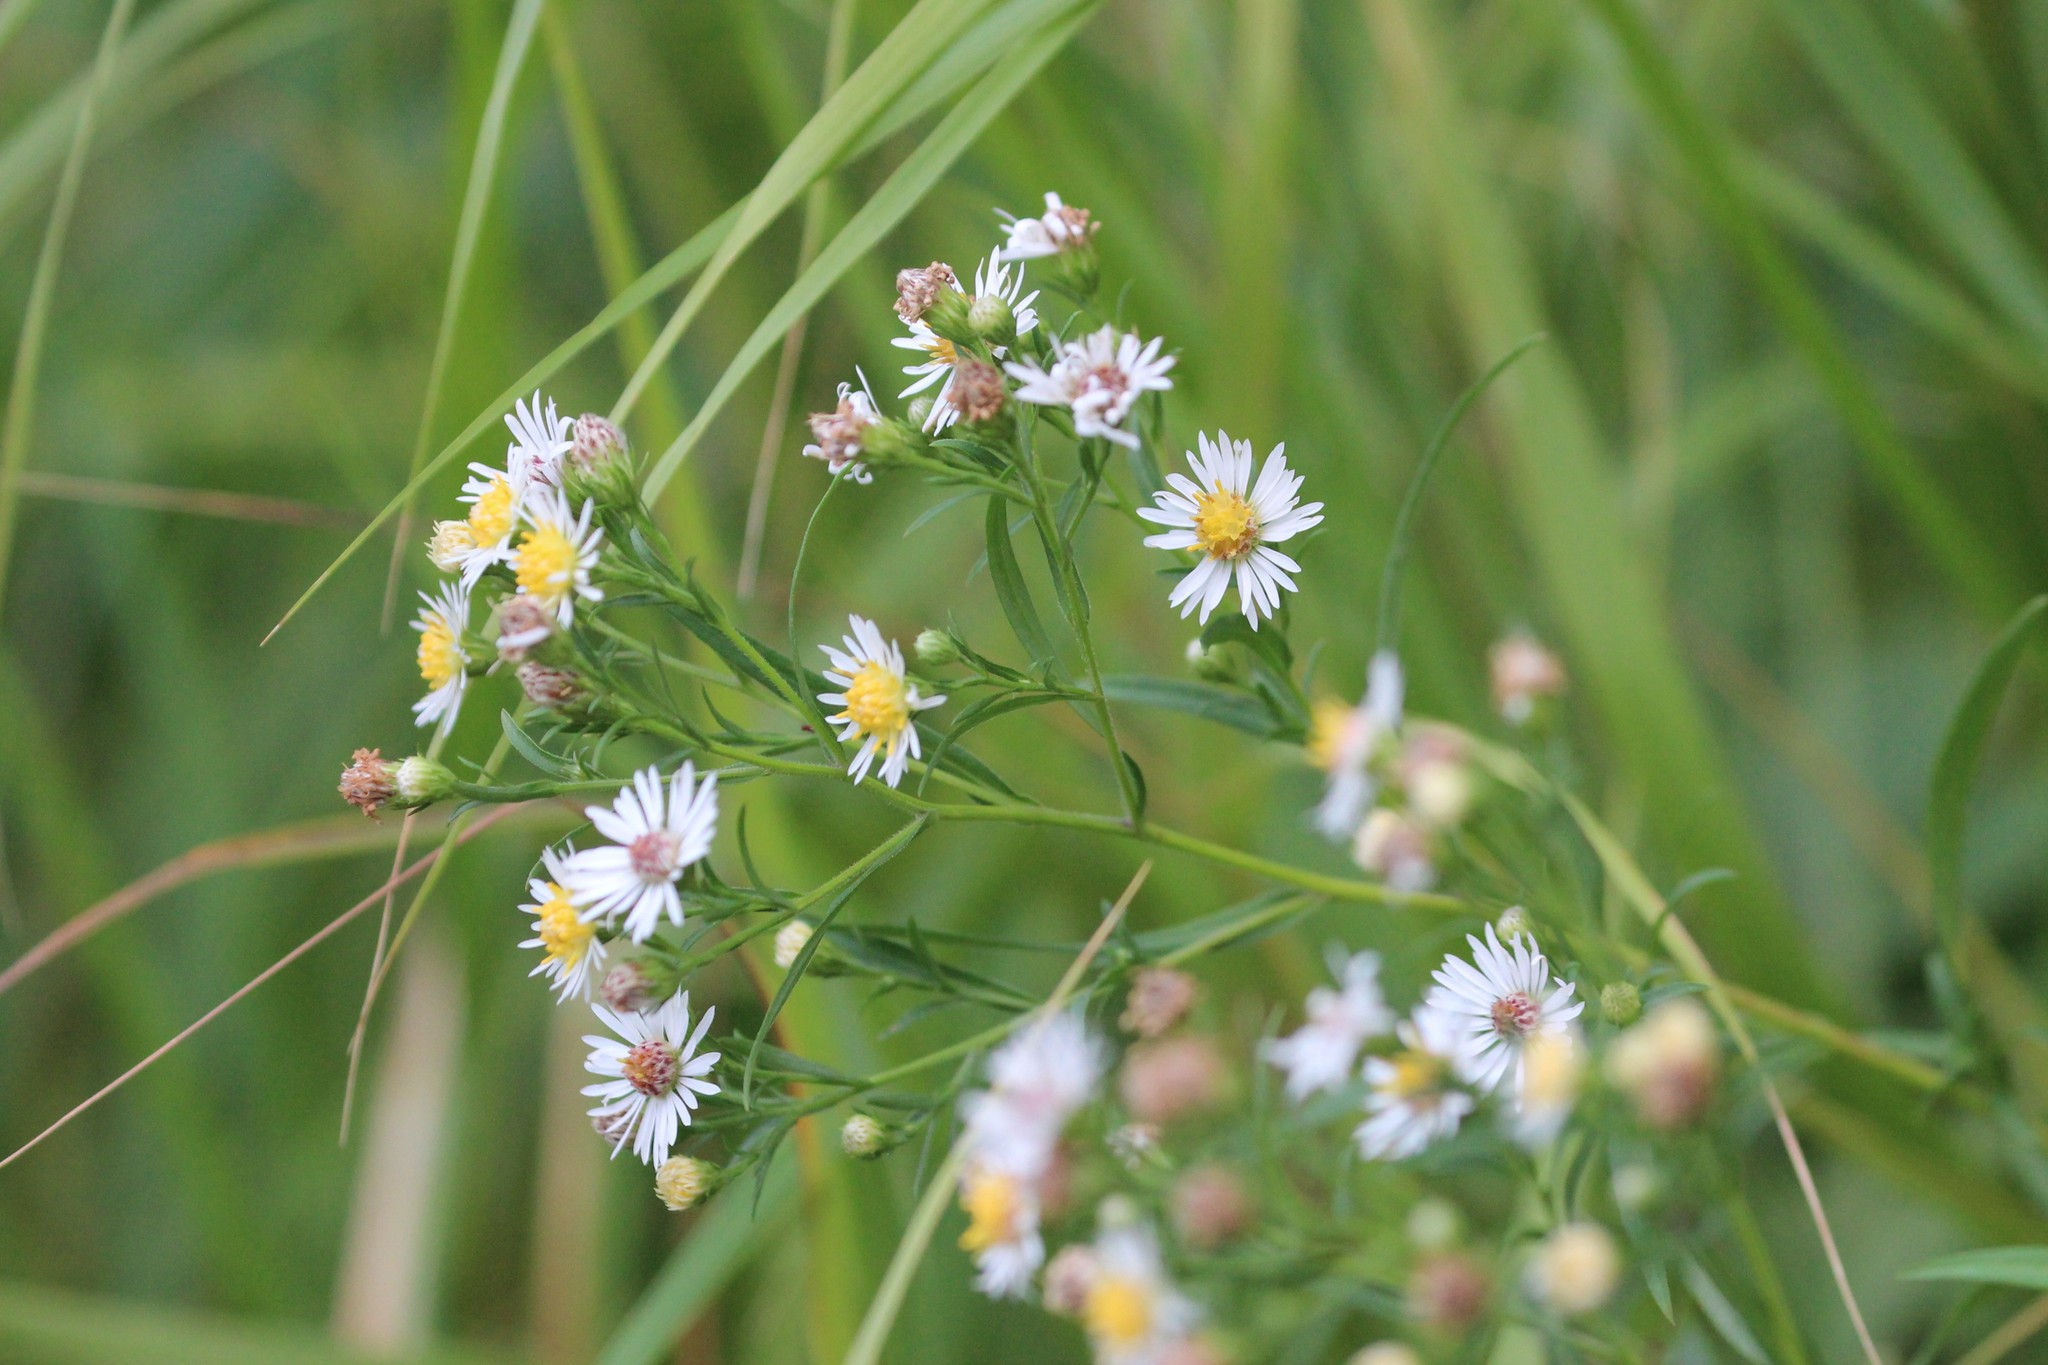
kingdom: Plantae
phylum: Tracheophyta
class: Magnoliopsida
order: Asterales
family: Asteraceae
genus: Symphyotrichum
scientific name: Symphyotrichum lanceolatum
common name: Panicled aster
